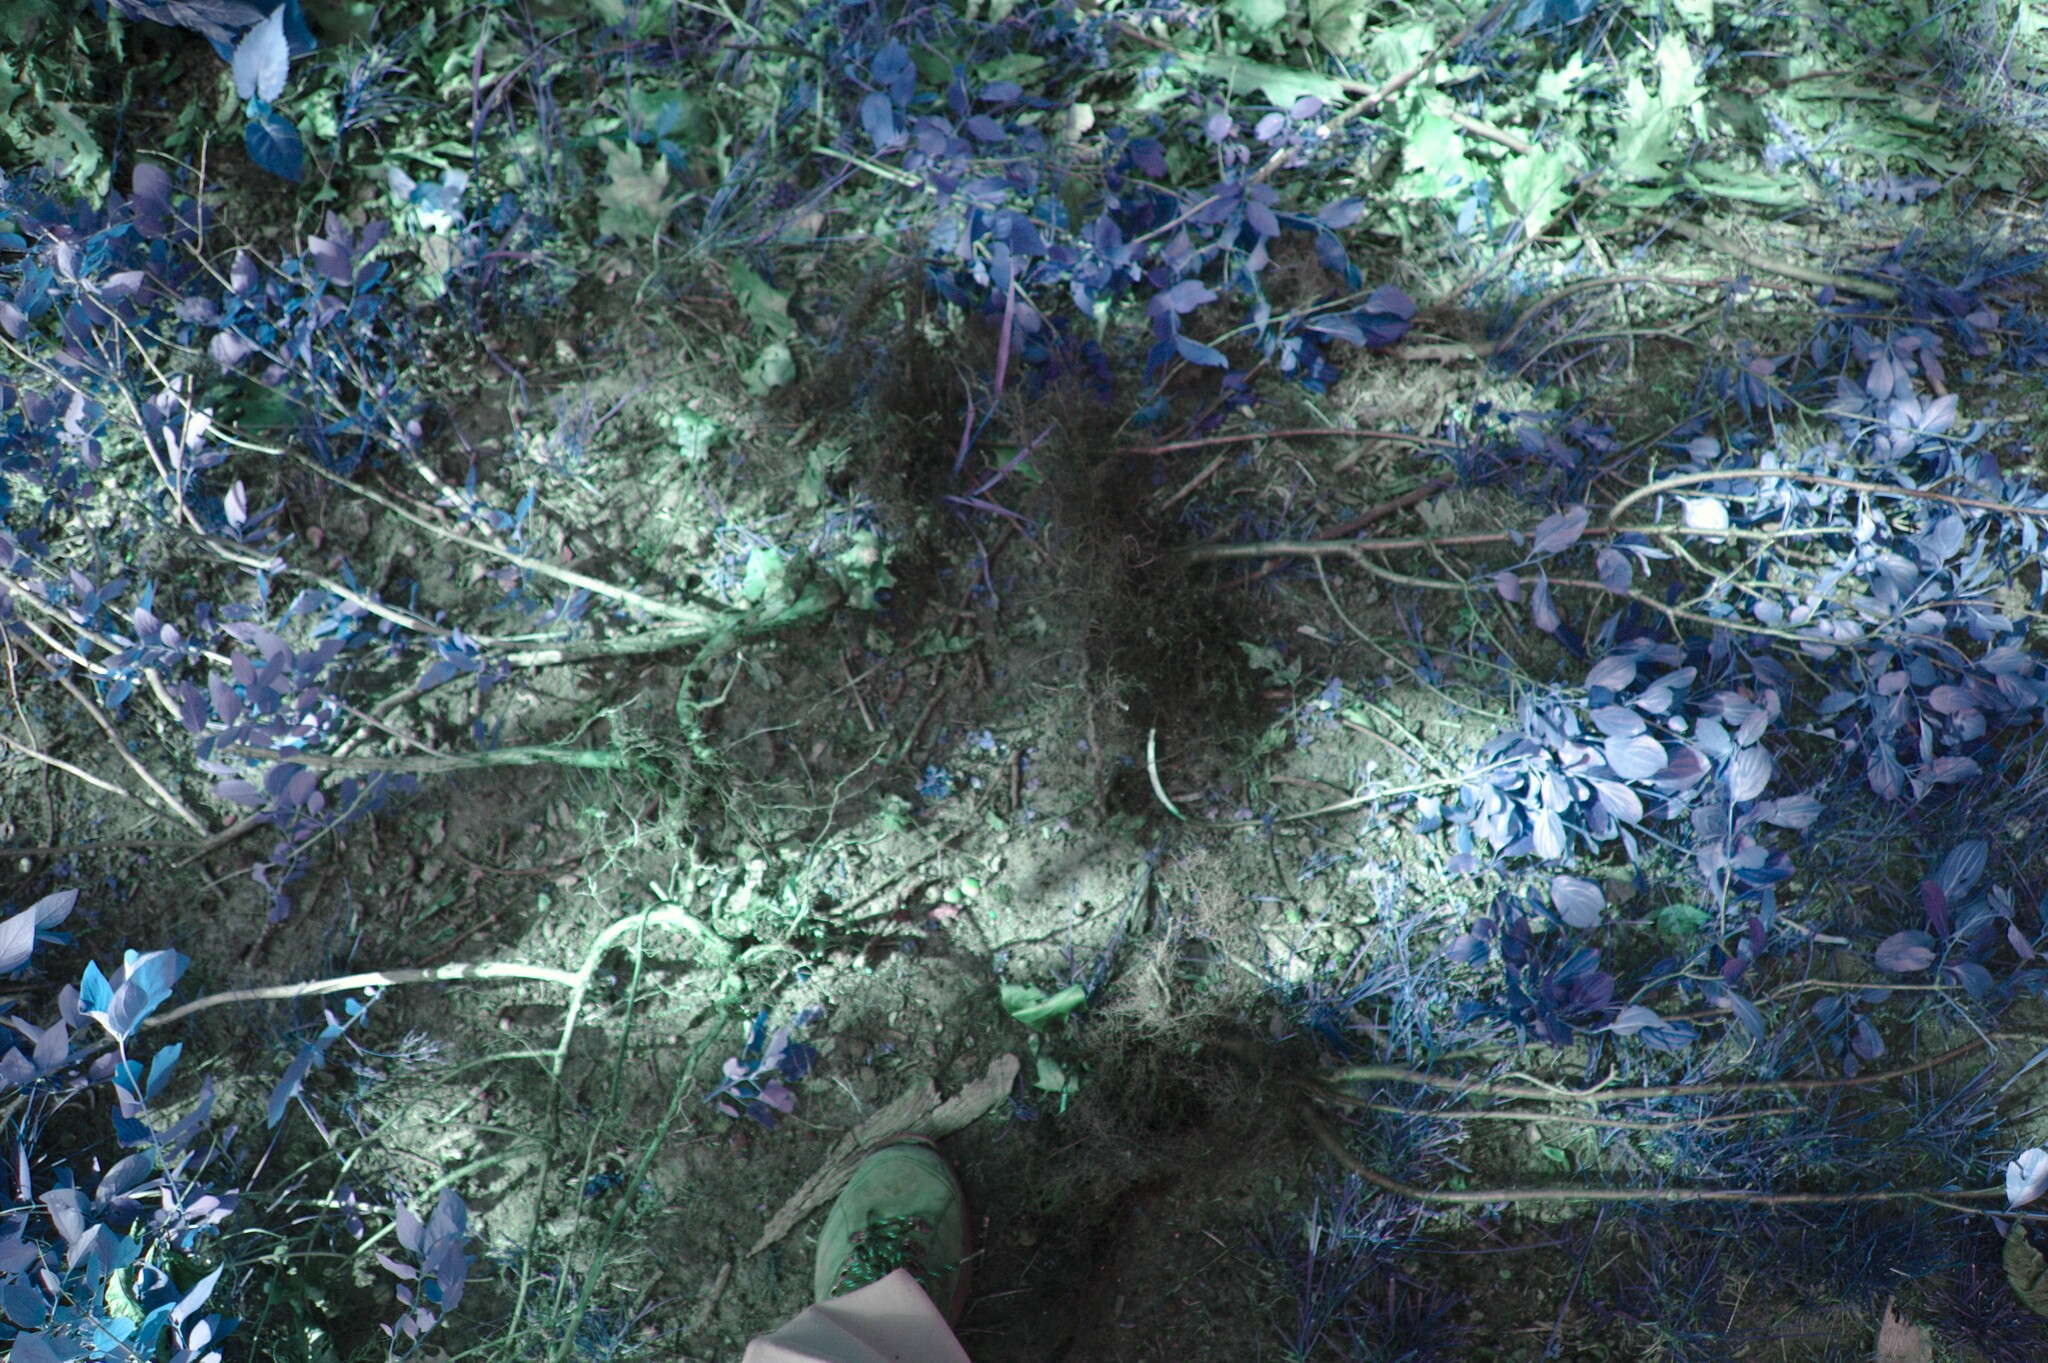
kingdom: Plantae
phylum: Tracheophyta
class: Magnoliopsida
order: Rosales
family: Rhamnaceae
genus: Rhamnus
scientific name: Rhamnus cathartica
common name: Common buckthorn
